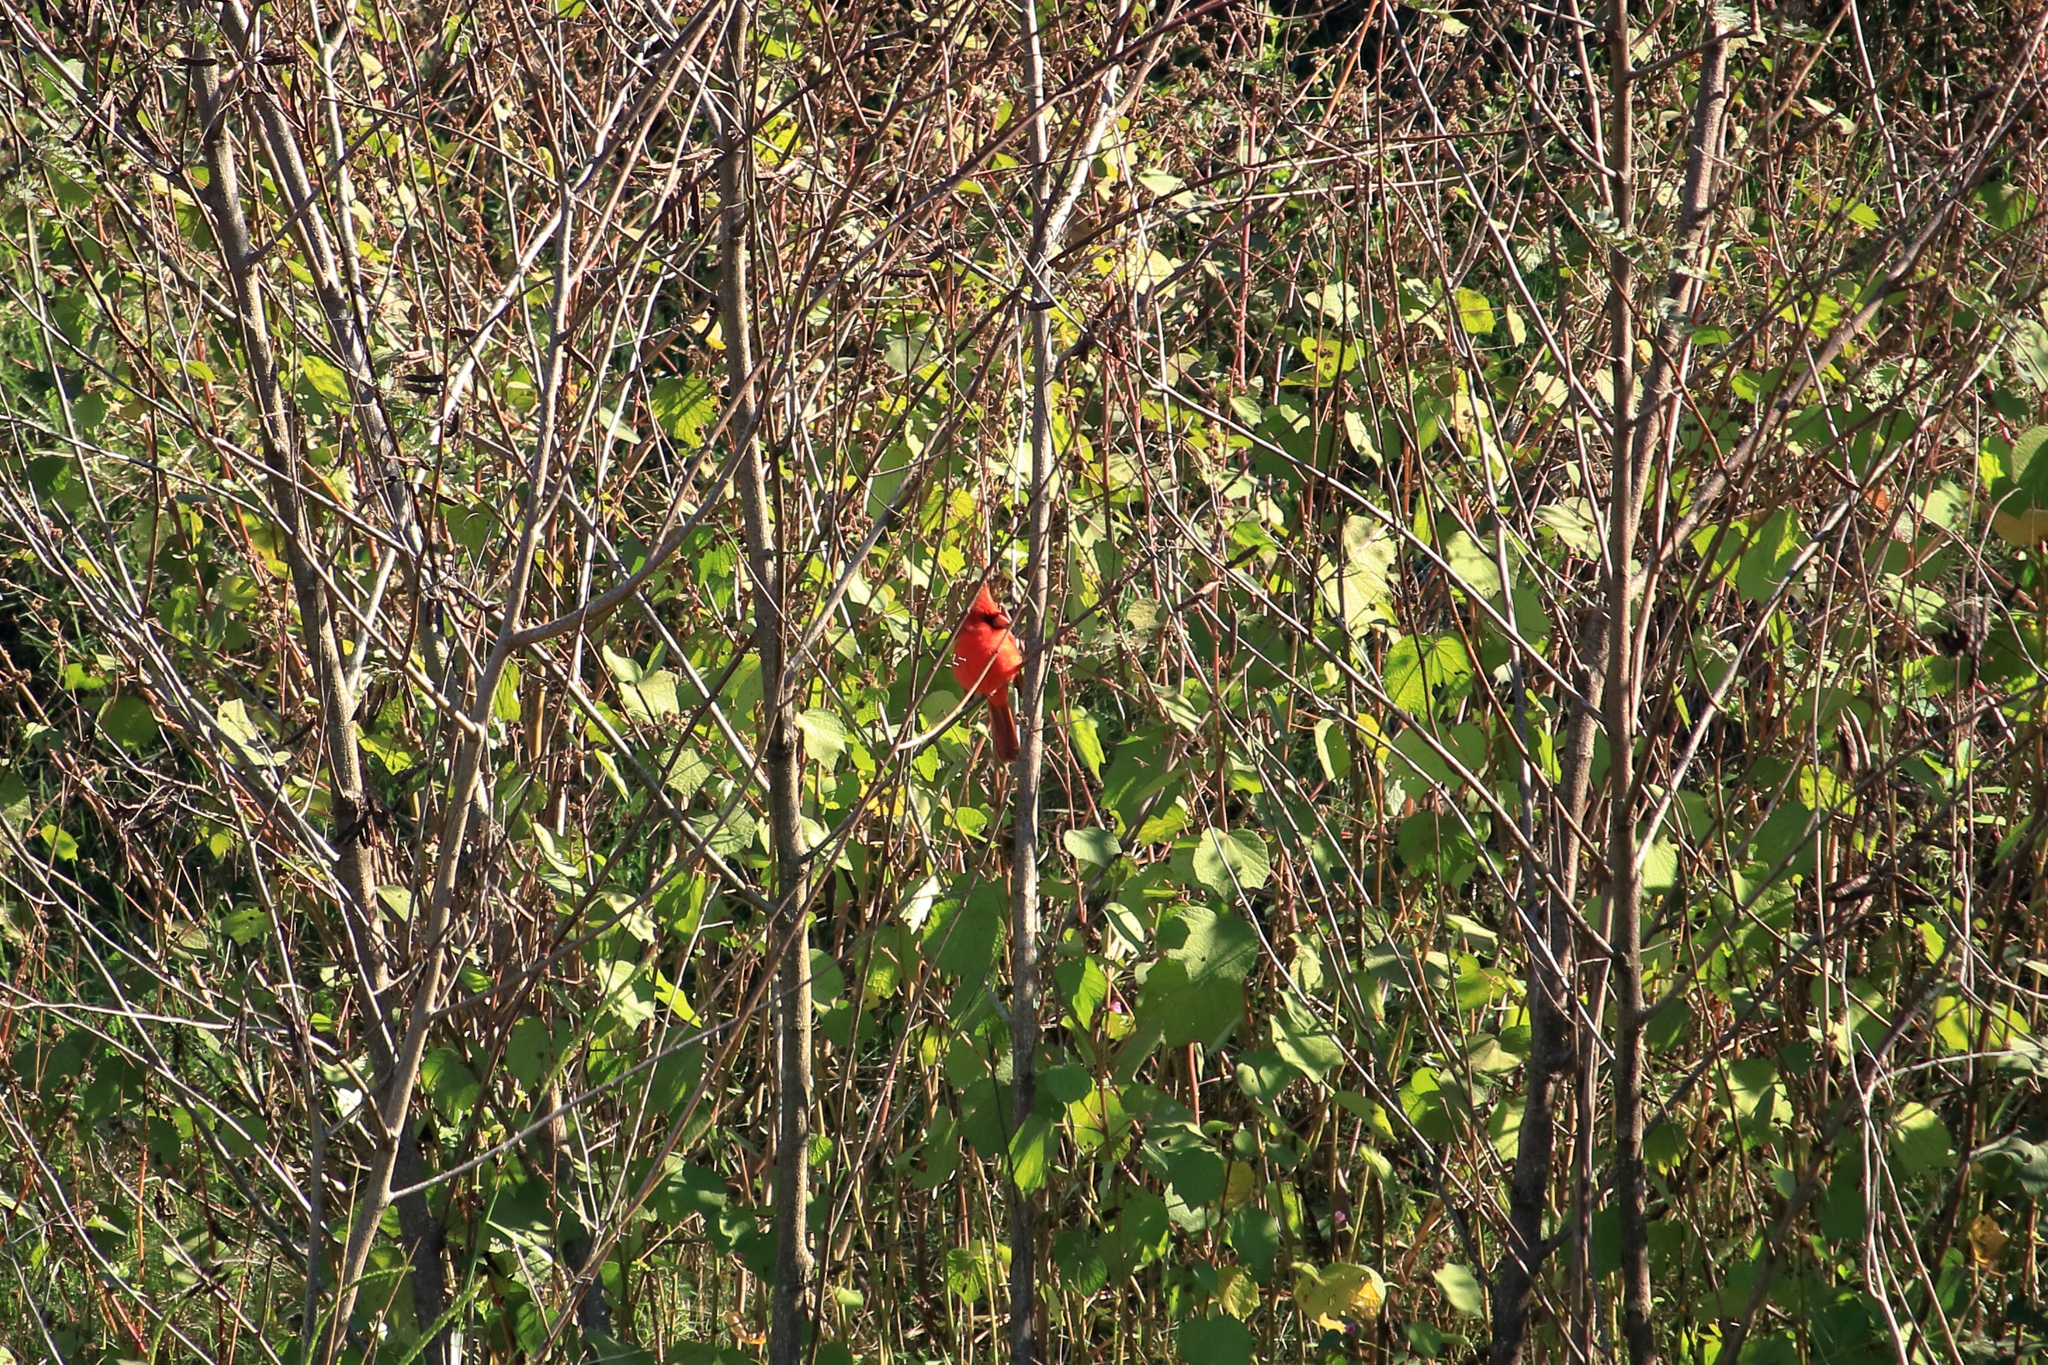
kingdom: Animalia
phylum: Chordata
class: Aves
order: Passeriformes
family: Cardinalidae
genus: Cardinalis
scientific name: Cardinalis cardinalis
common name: Northern cardinal
